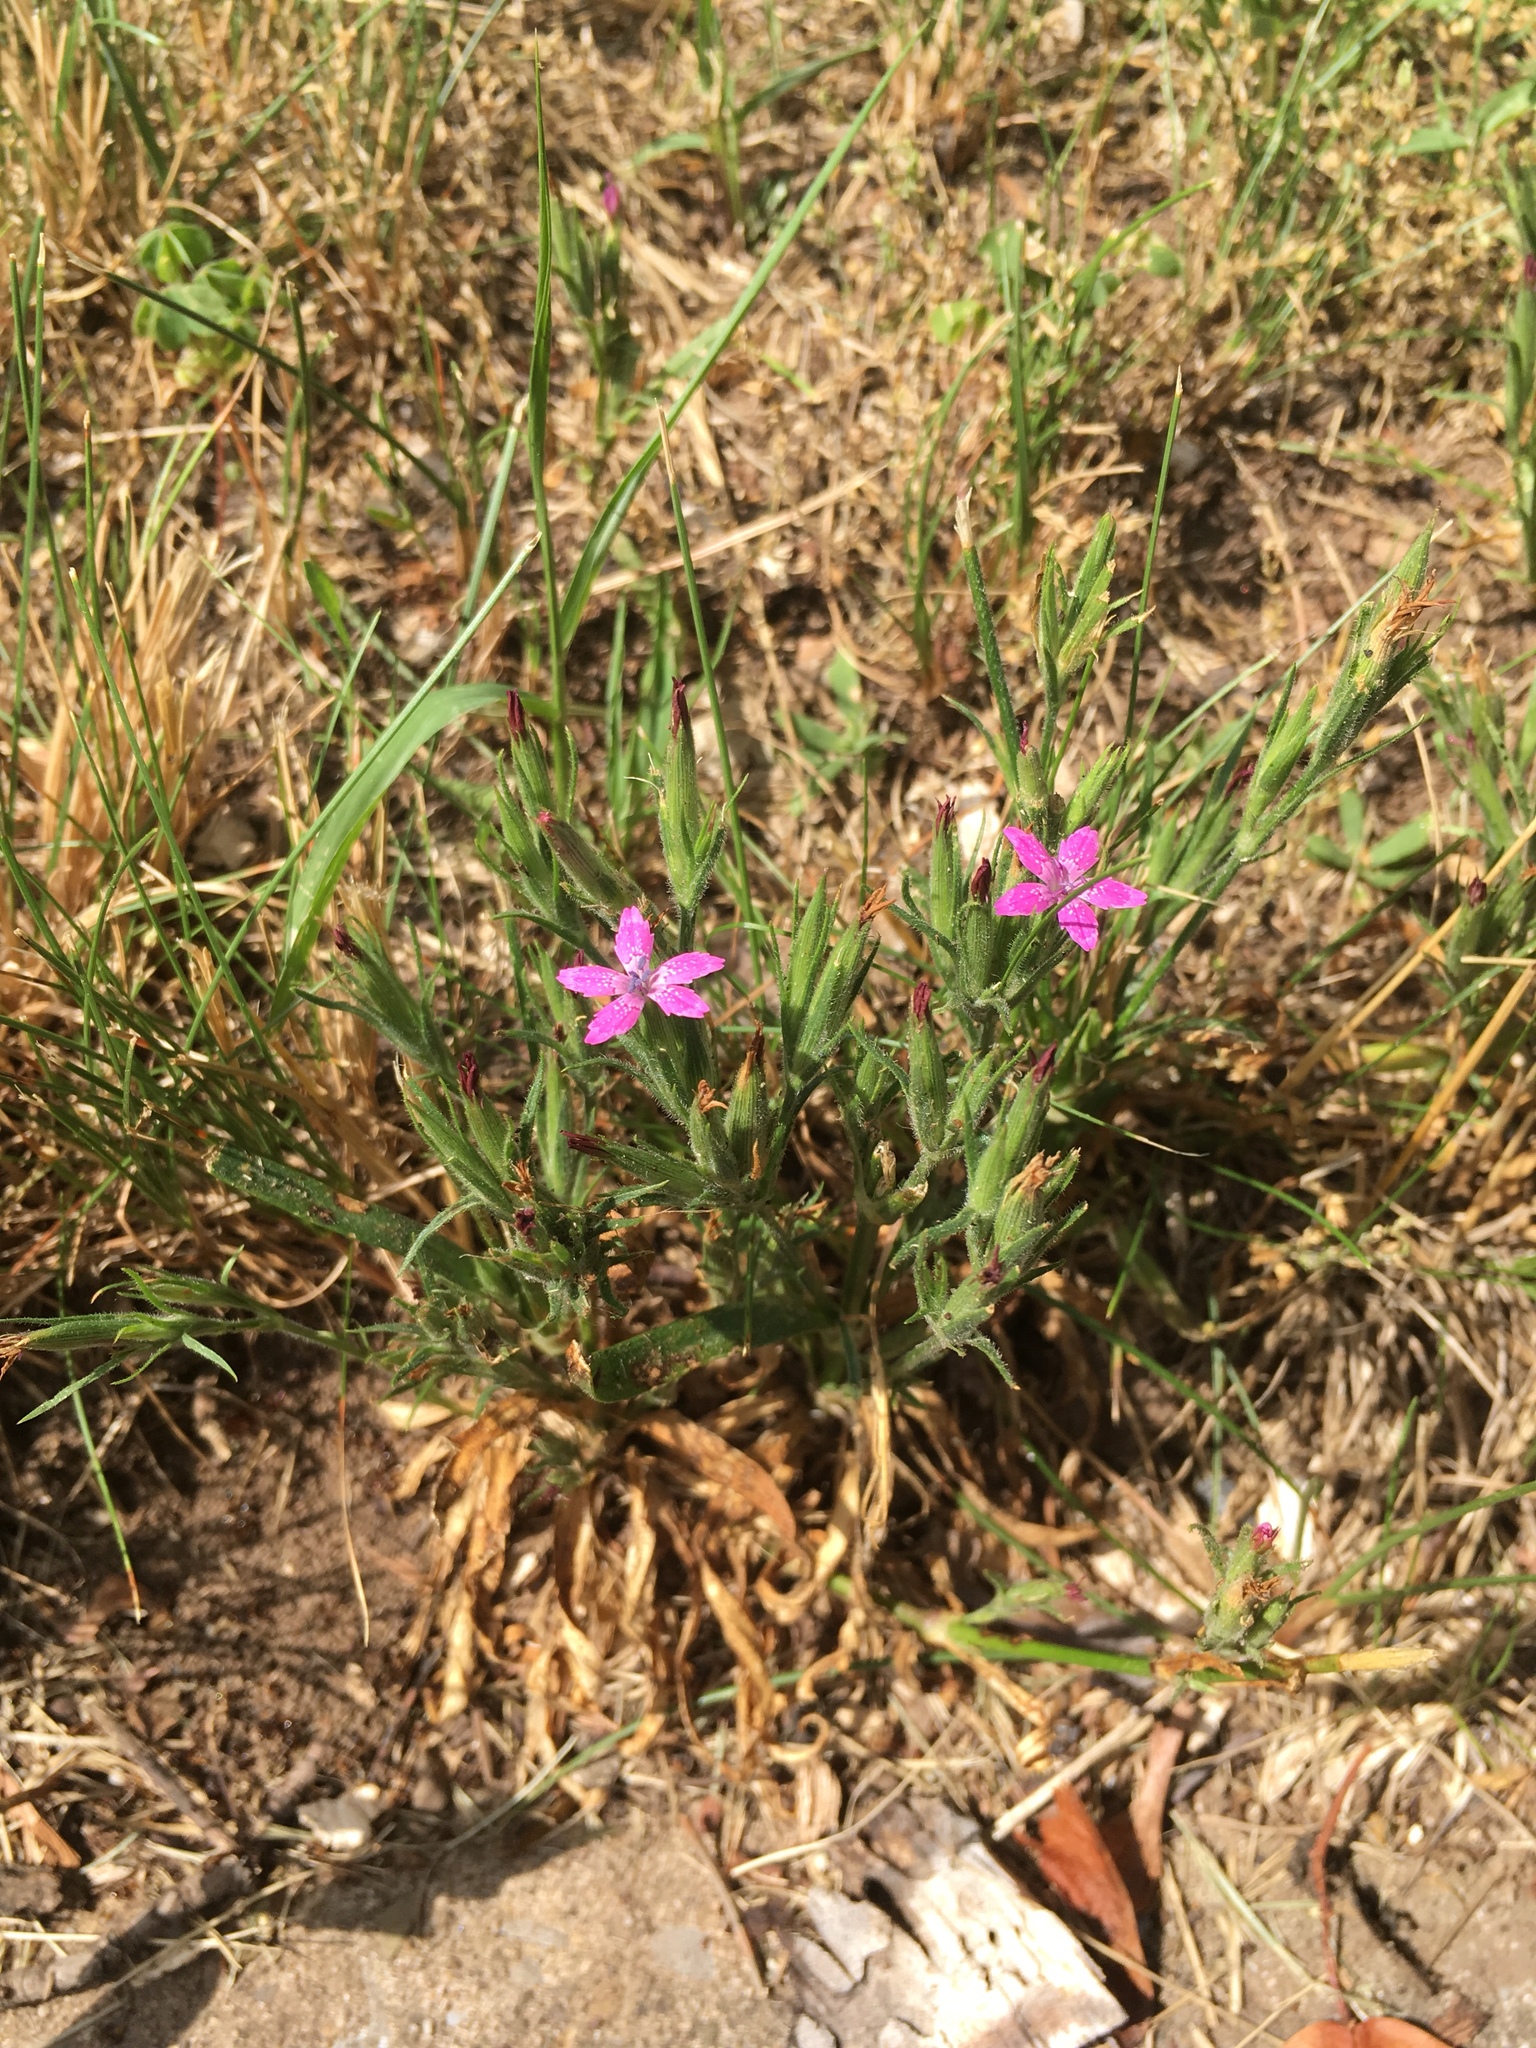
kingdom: Plantae
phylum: Tracheophyta
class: Magnoliopsida
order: Caryophyllales
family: Caryophyllaceae
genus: Dianthus
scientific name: Dianthus armeria
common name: Deptford pink
